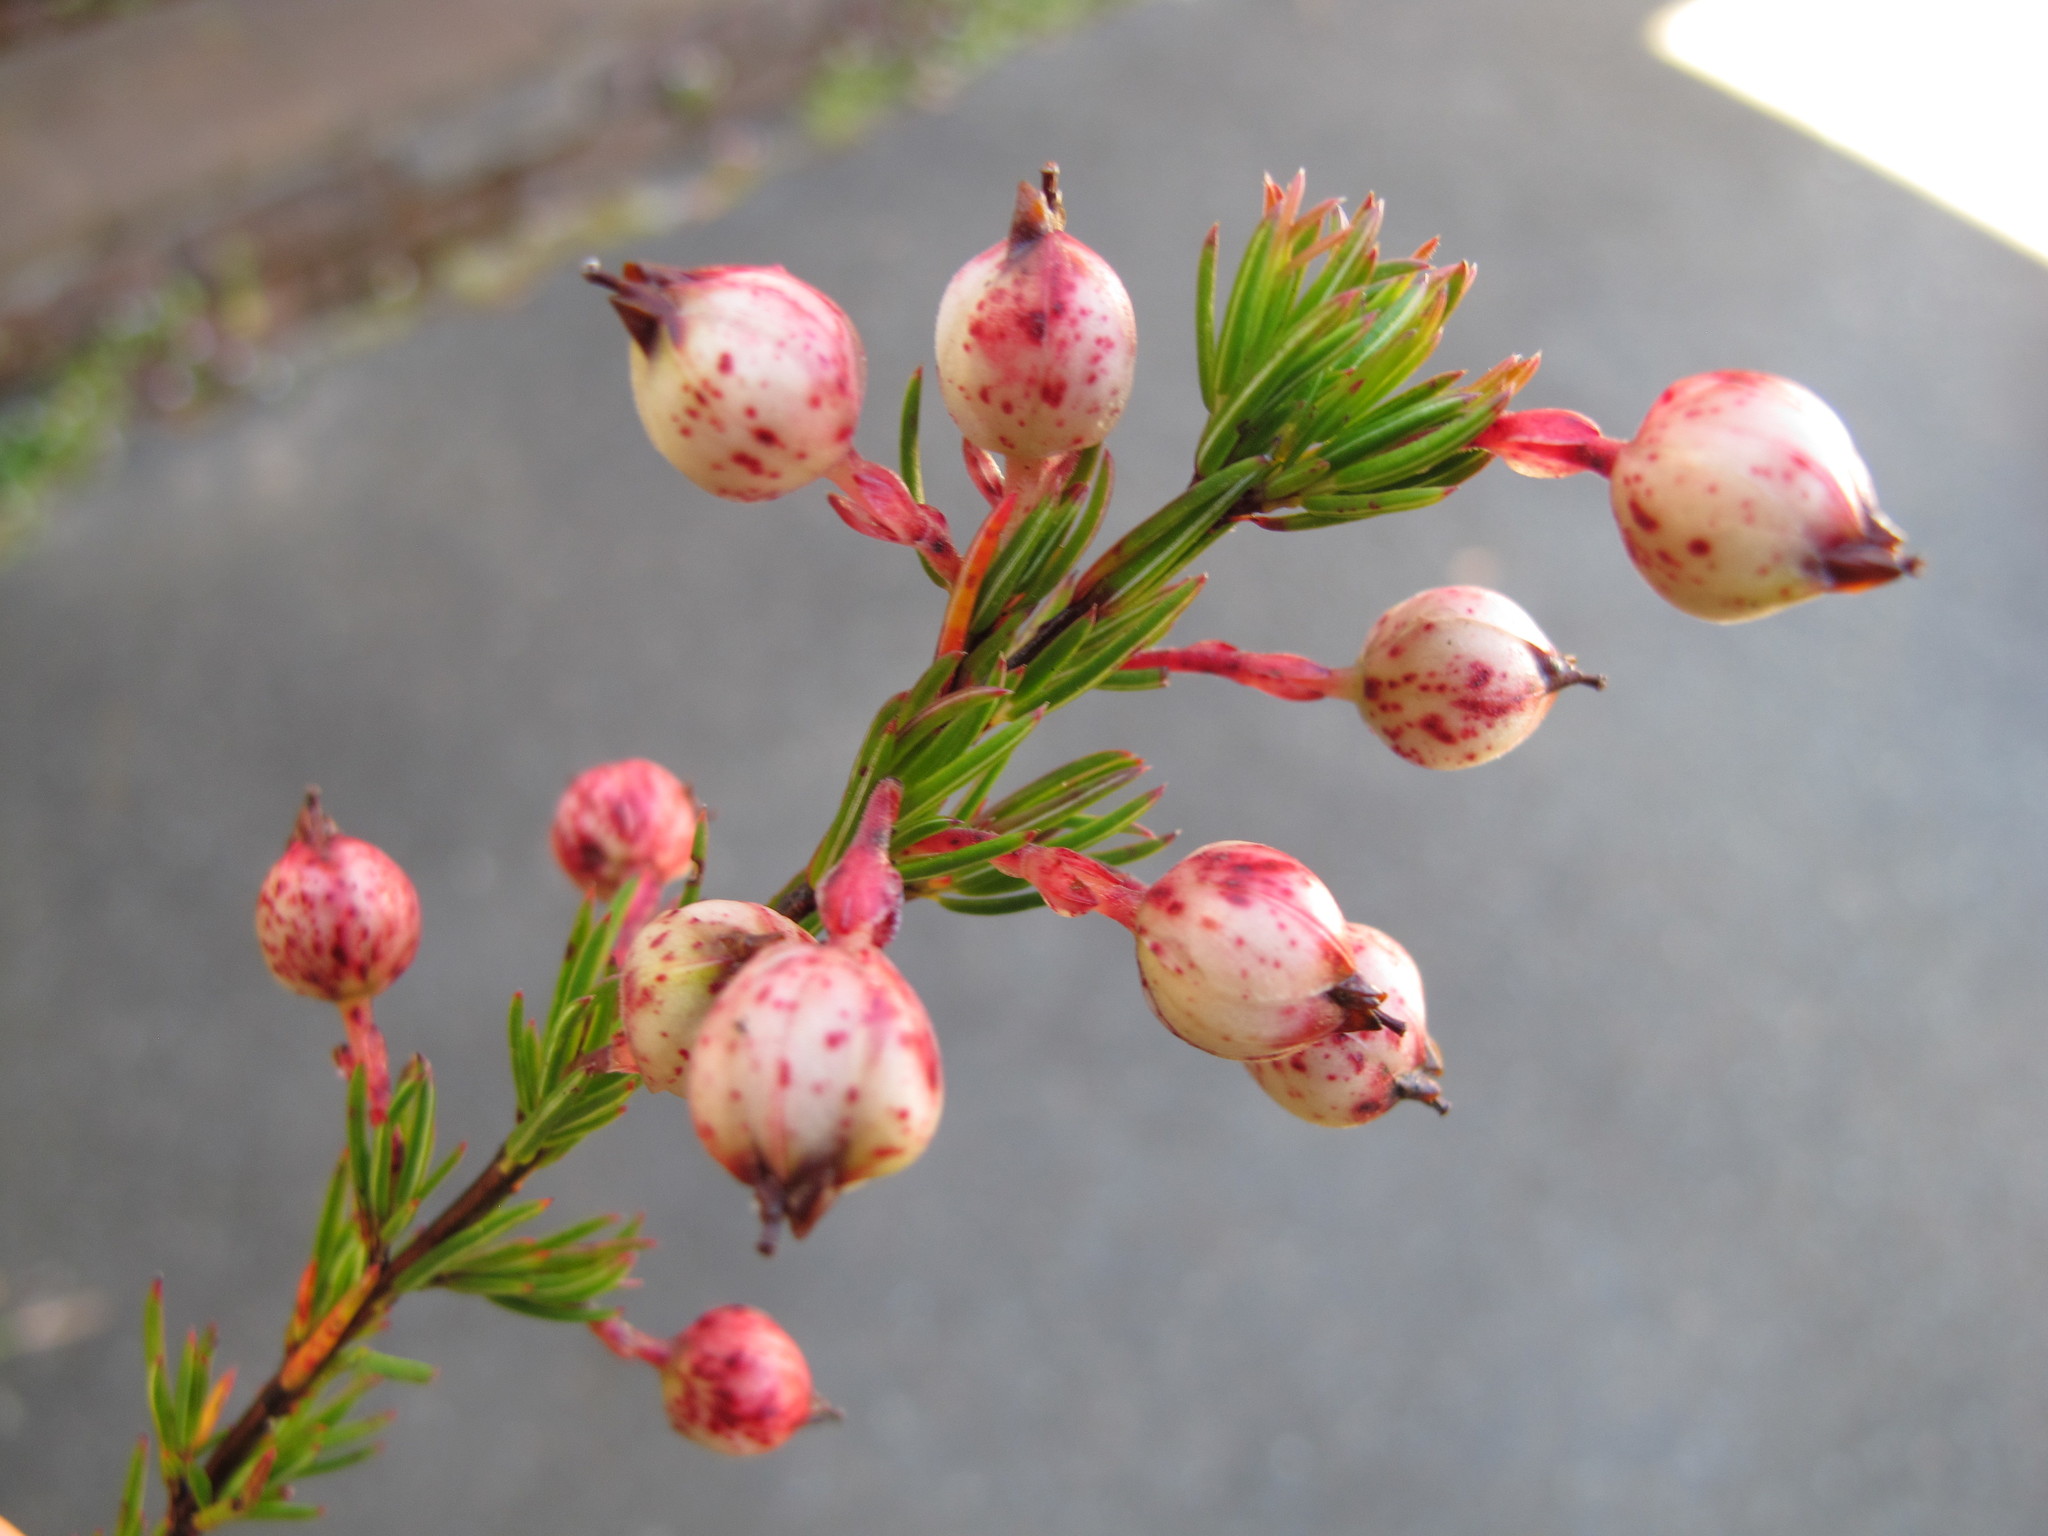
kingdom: Plantae
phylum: Tracheophyta
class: Magnoliopsida
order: Ericales
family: Ericaceae
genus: Erica
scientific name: Erica bodkinii
